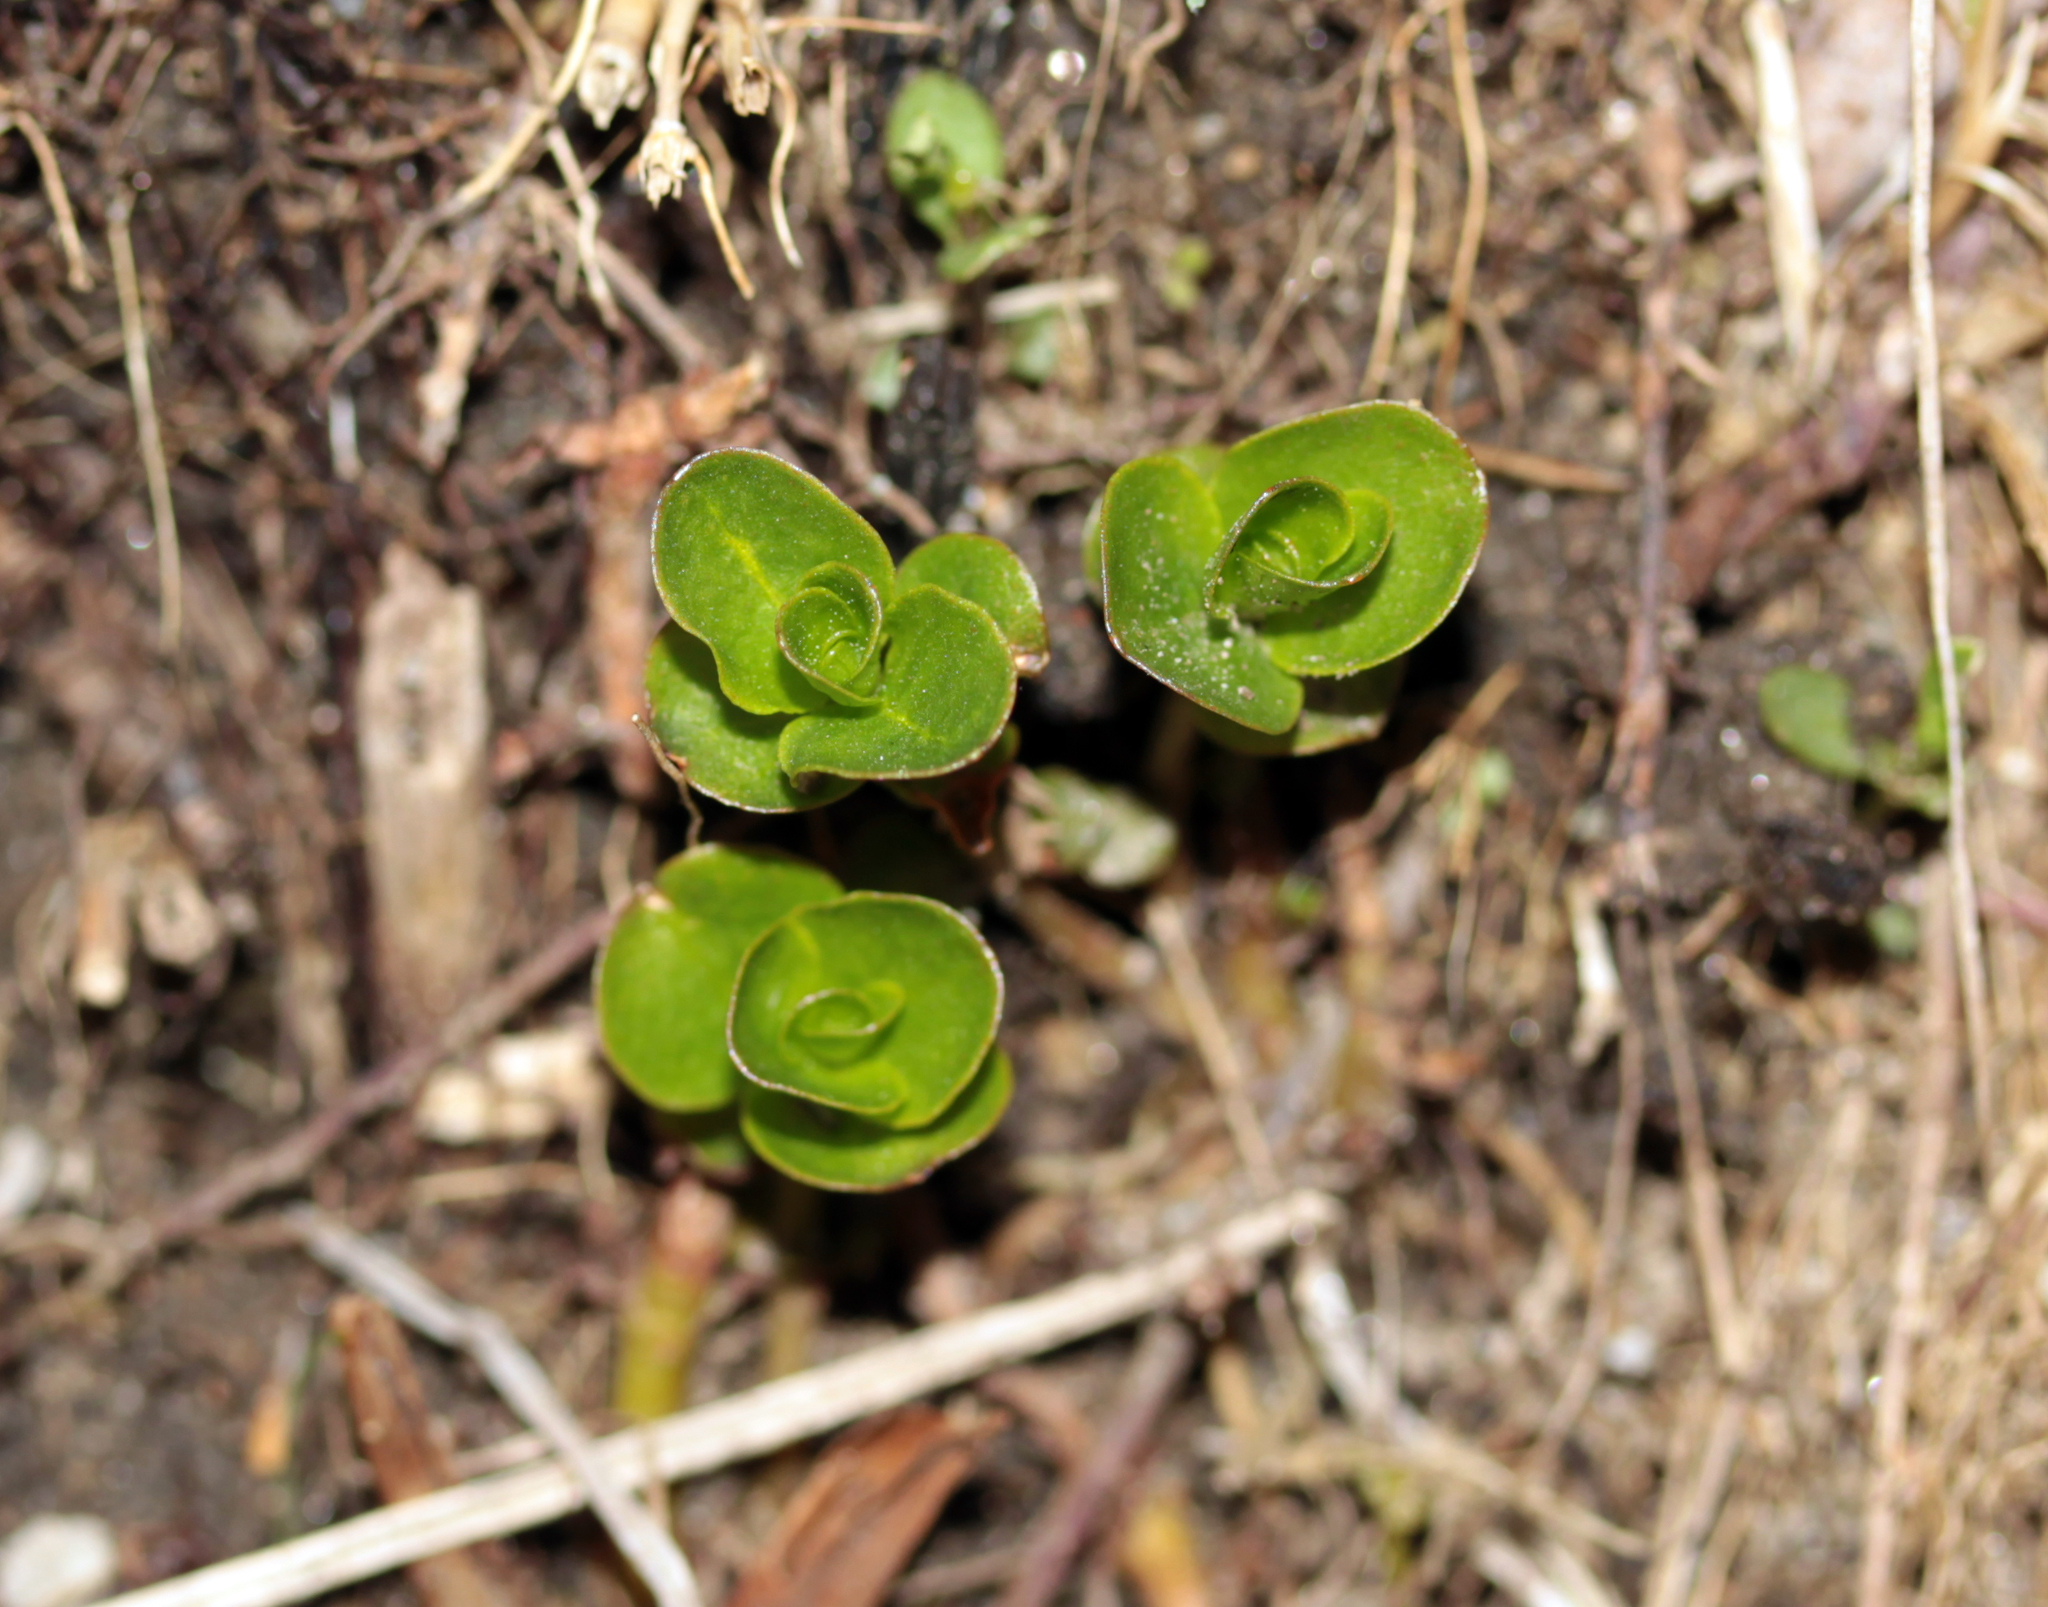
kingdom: Plantae
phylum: Tracheophyta
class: Magnoliopsida
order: Ericales
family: Primulaceae
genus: Lysimachia
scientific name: Lysimachia nummularia
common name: Moneywort
